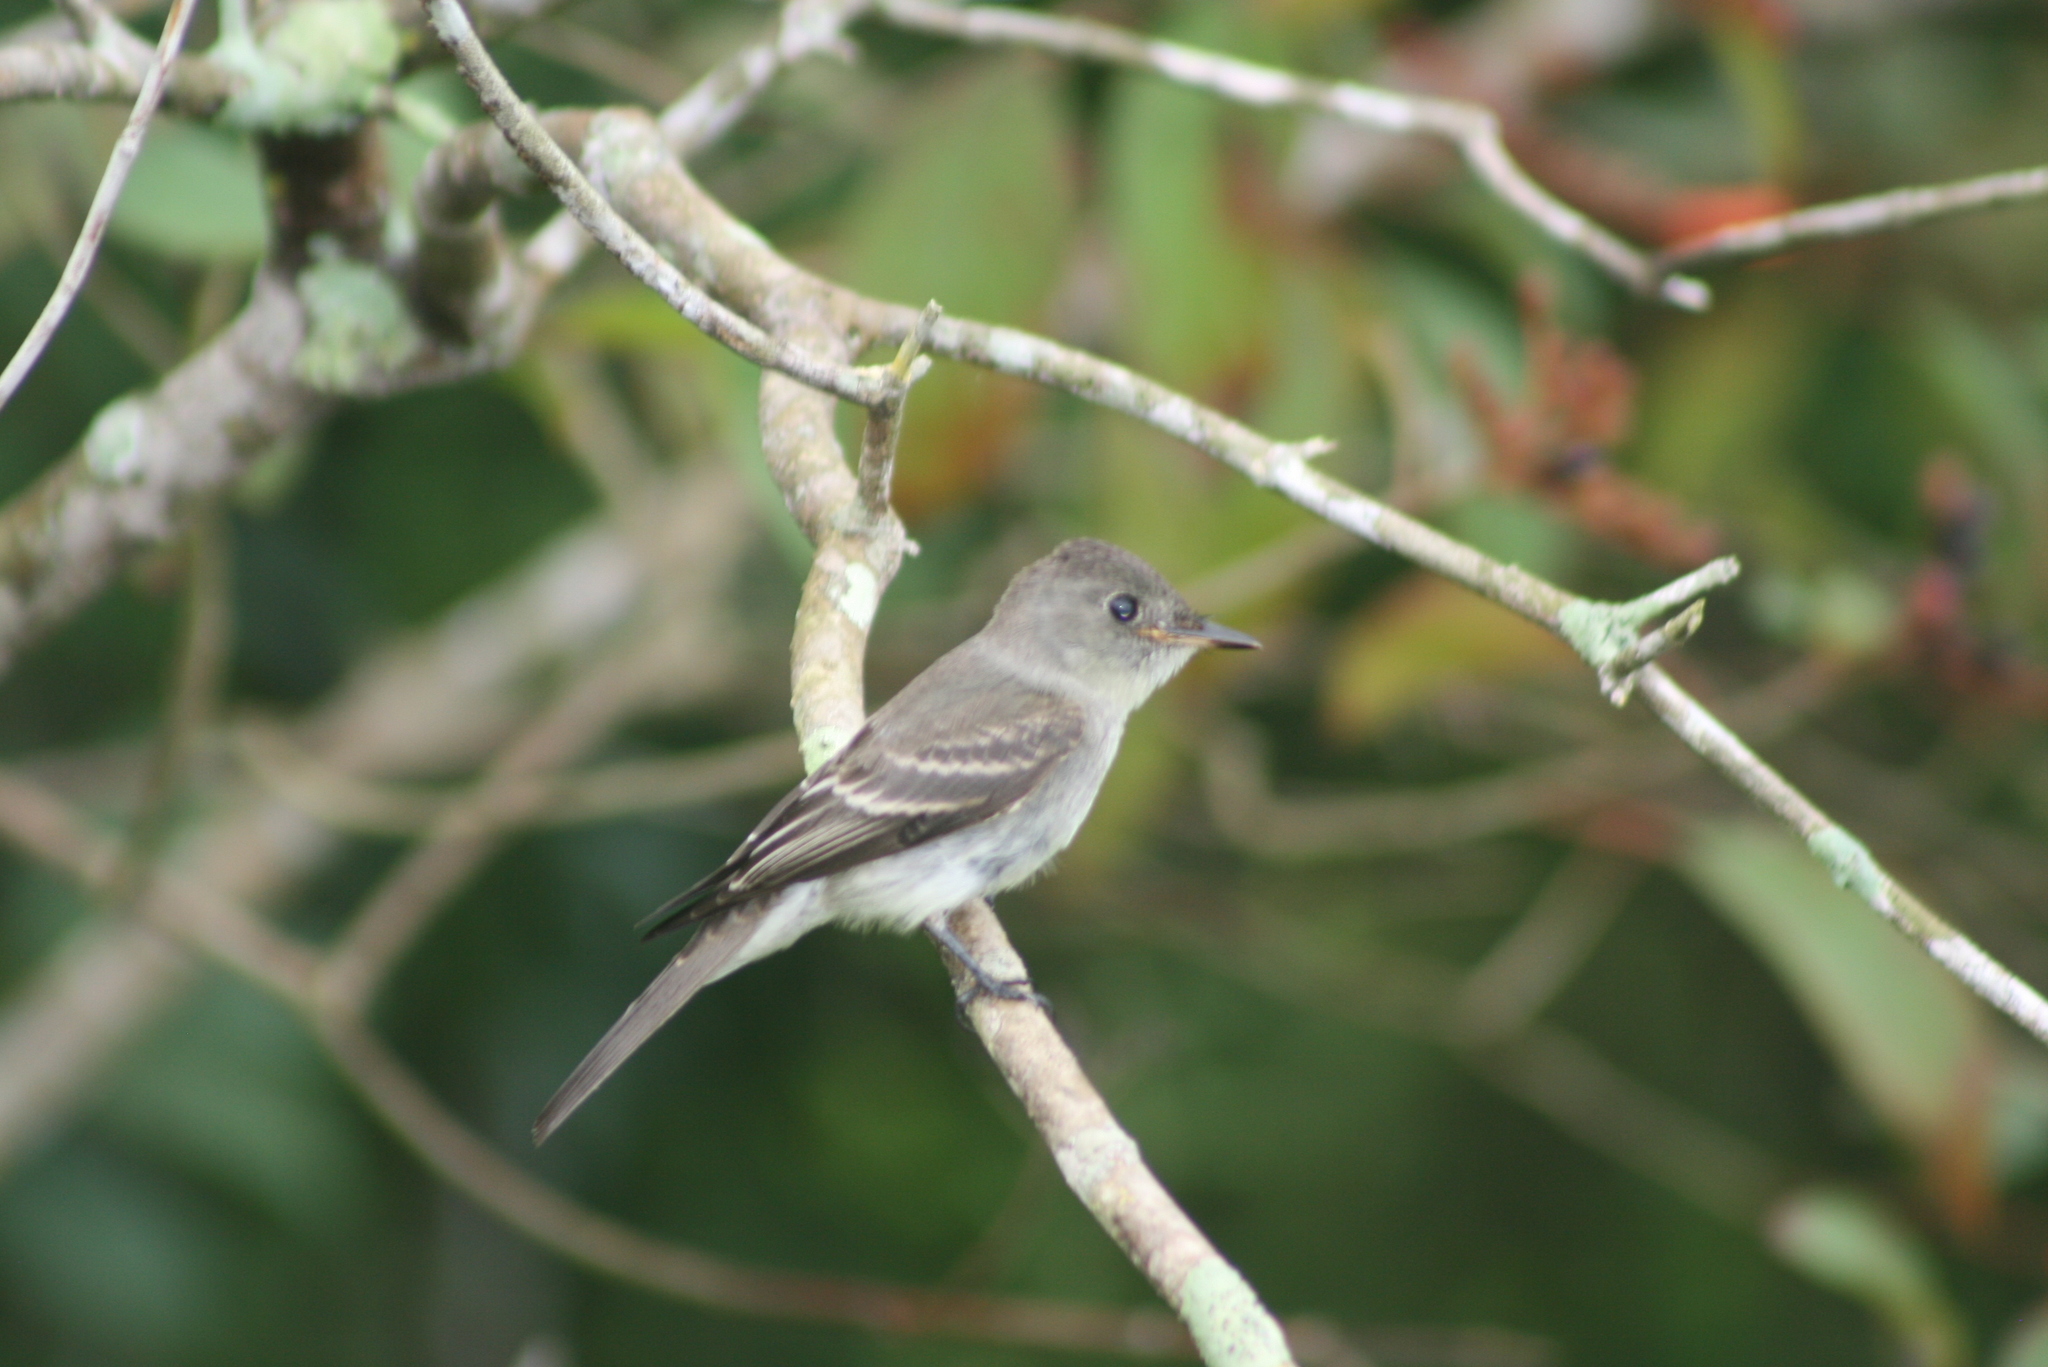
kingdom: Animalia
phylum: Chordata
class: Aves
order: Passeriformes
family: Tyrannidae
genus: Contopus
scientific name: Contopus virens
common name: Eastern wood-pewee
